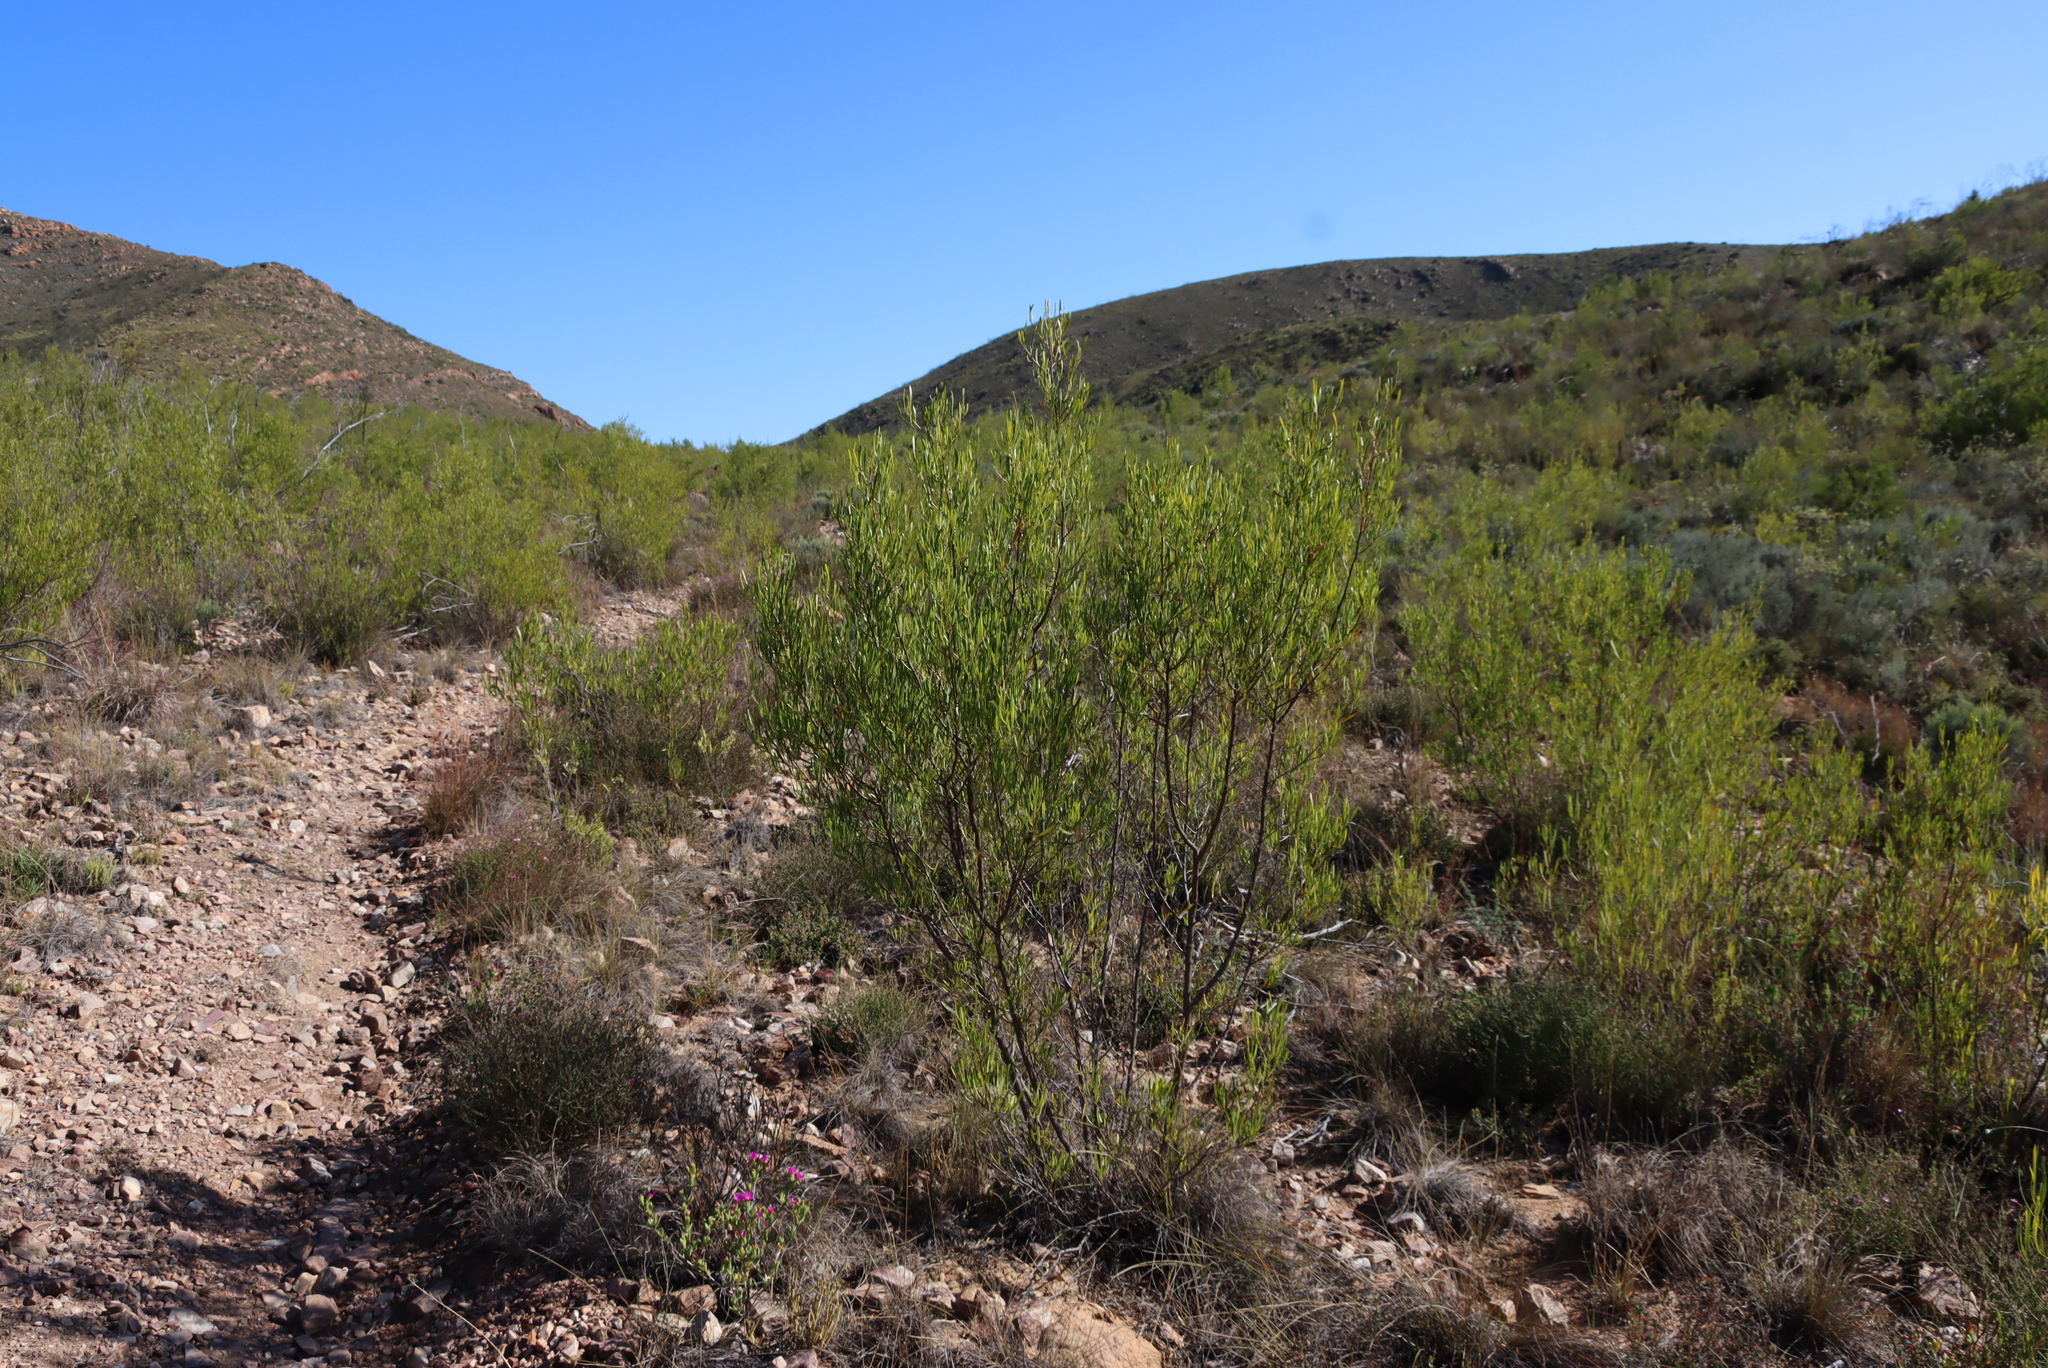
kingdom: Plantae
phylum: Tracheophyta
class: Magnoliopsida
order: Sapindales
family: Sapindaceae
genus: Dodonaea
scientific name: Dodonaea viscosa
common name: Hopbush
